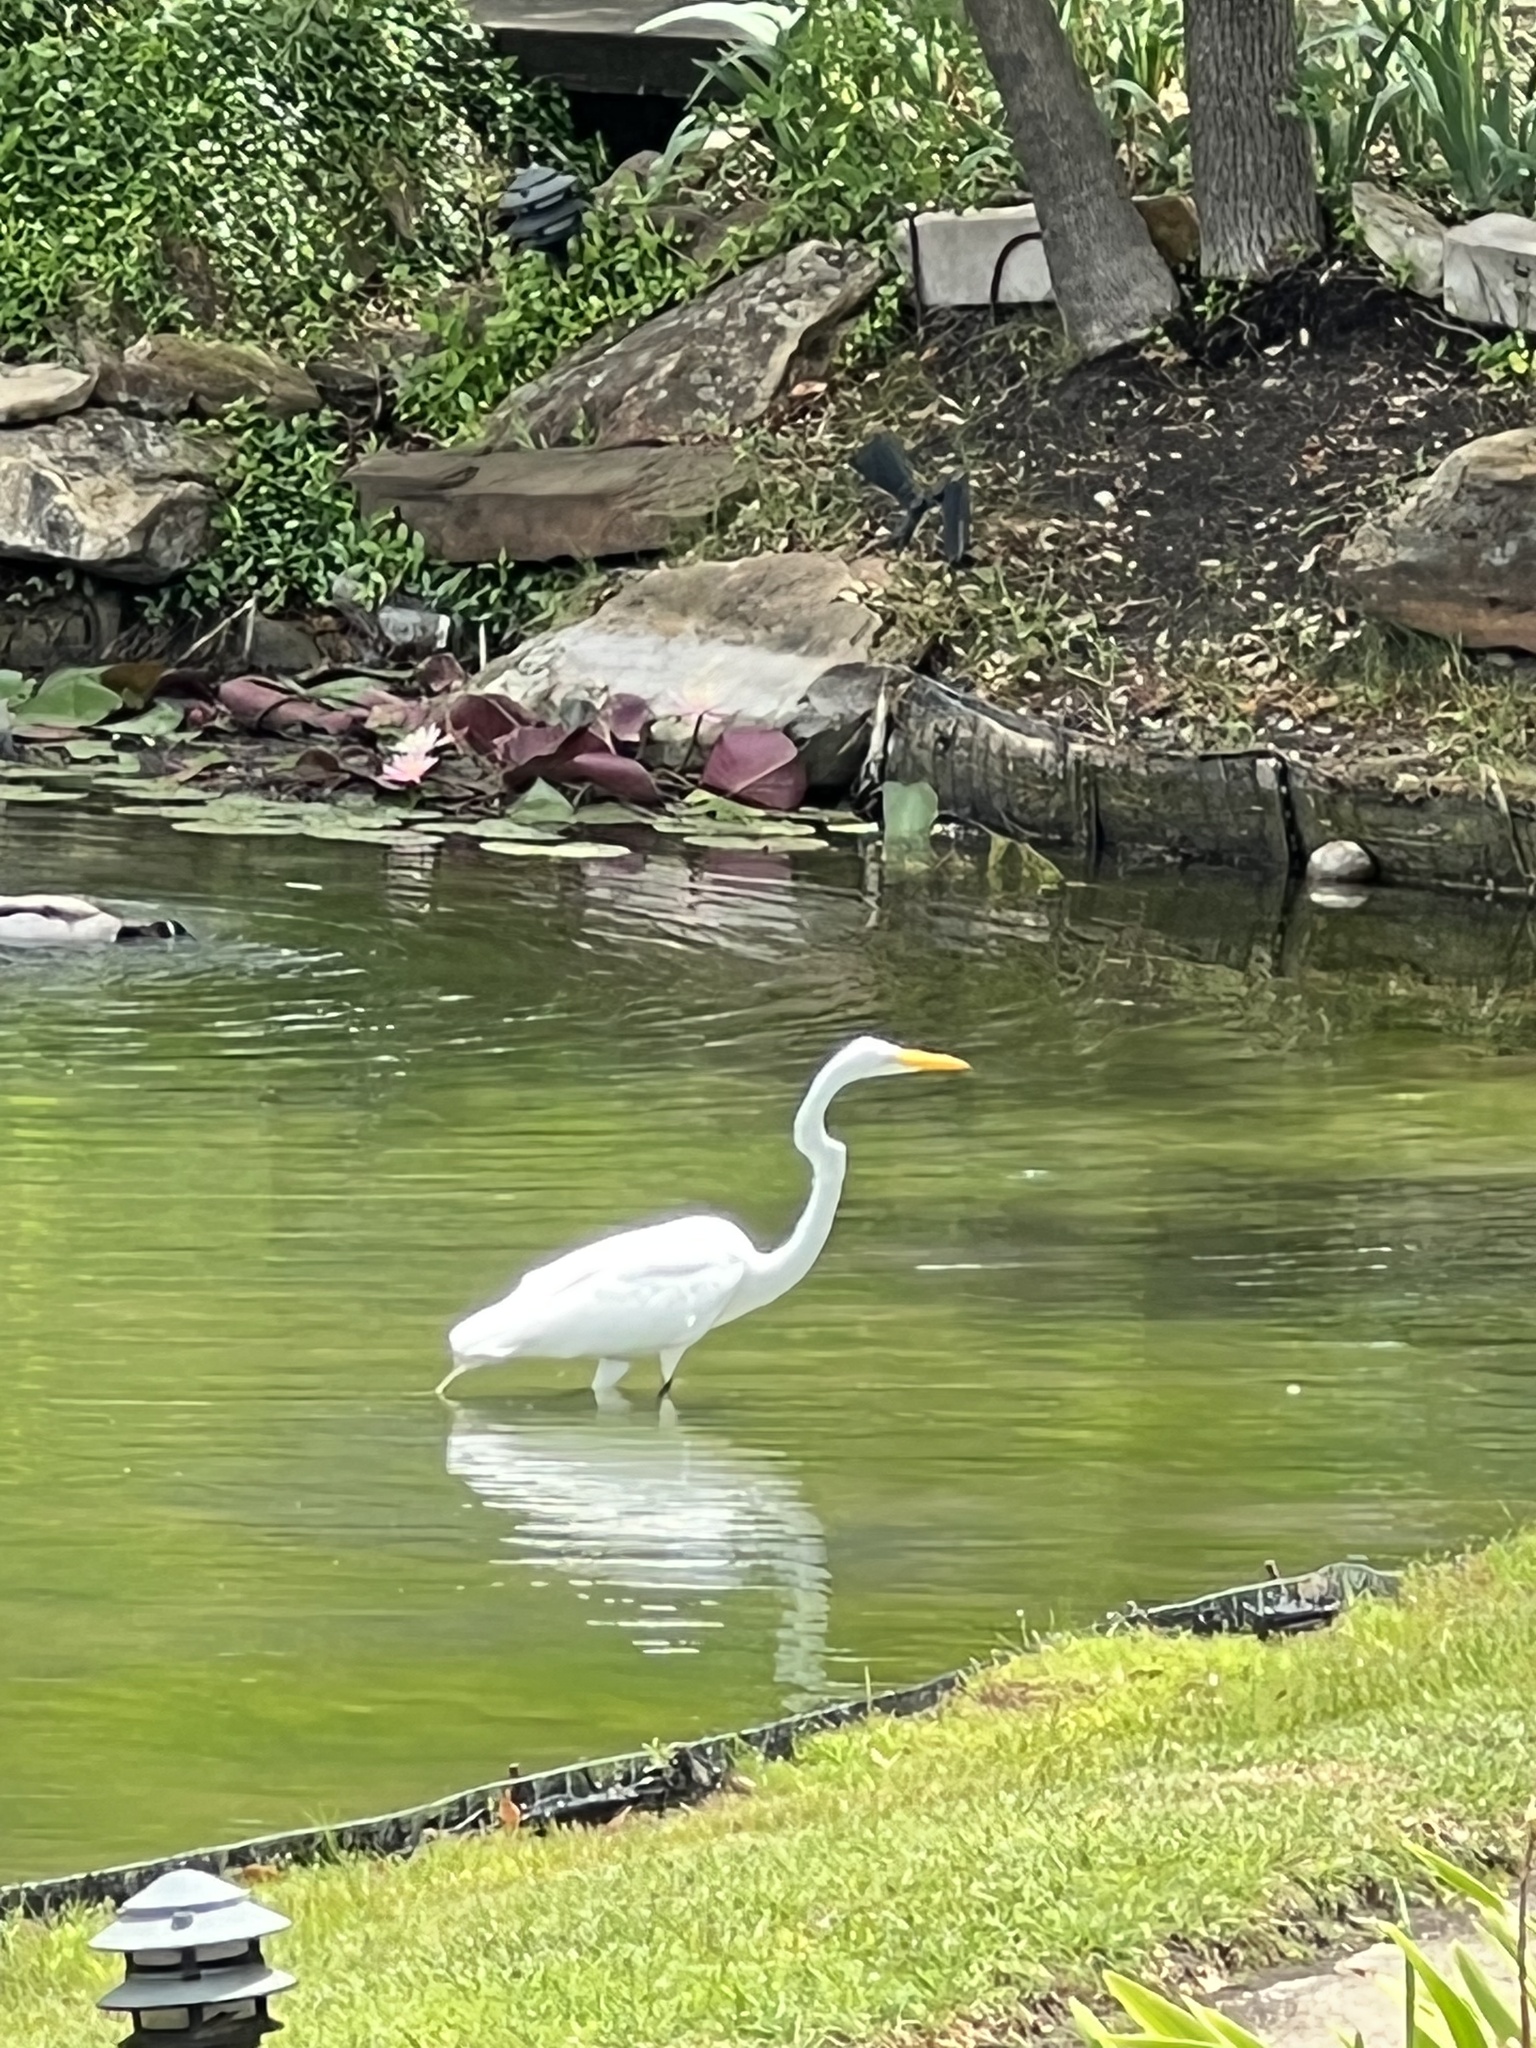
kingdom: Animalia
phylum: Chordata
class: Aves
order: Pelecaniformes
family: Ardeidae
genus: Ardea
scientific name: Ardea alba
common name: Great egret
